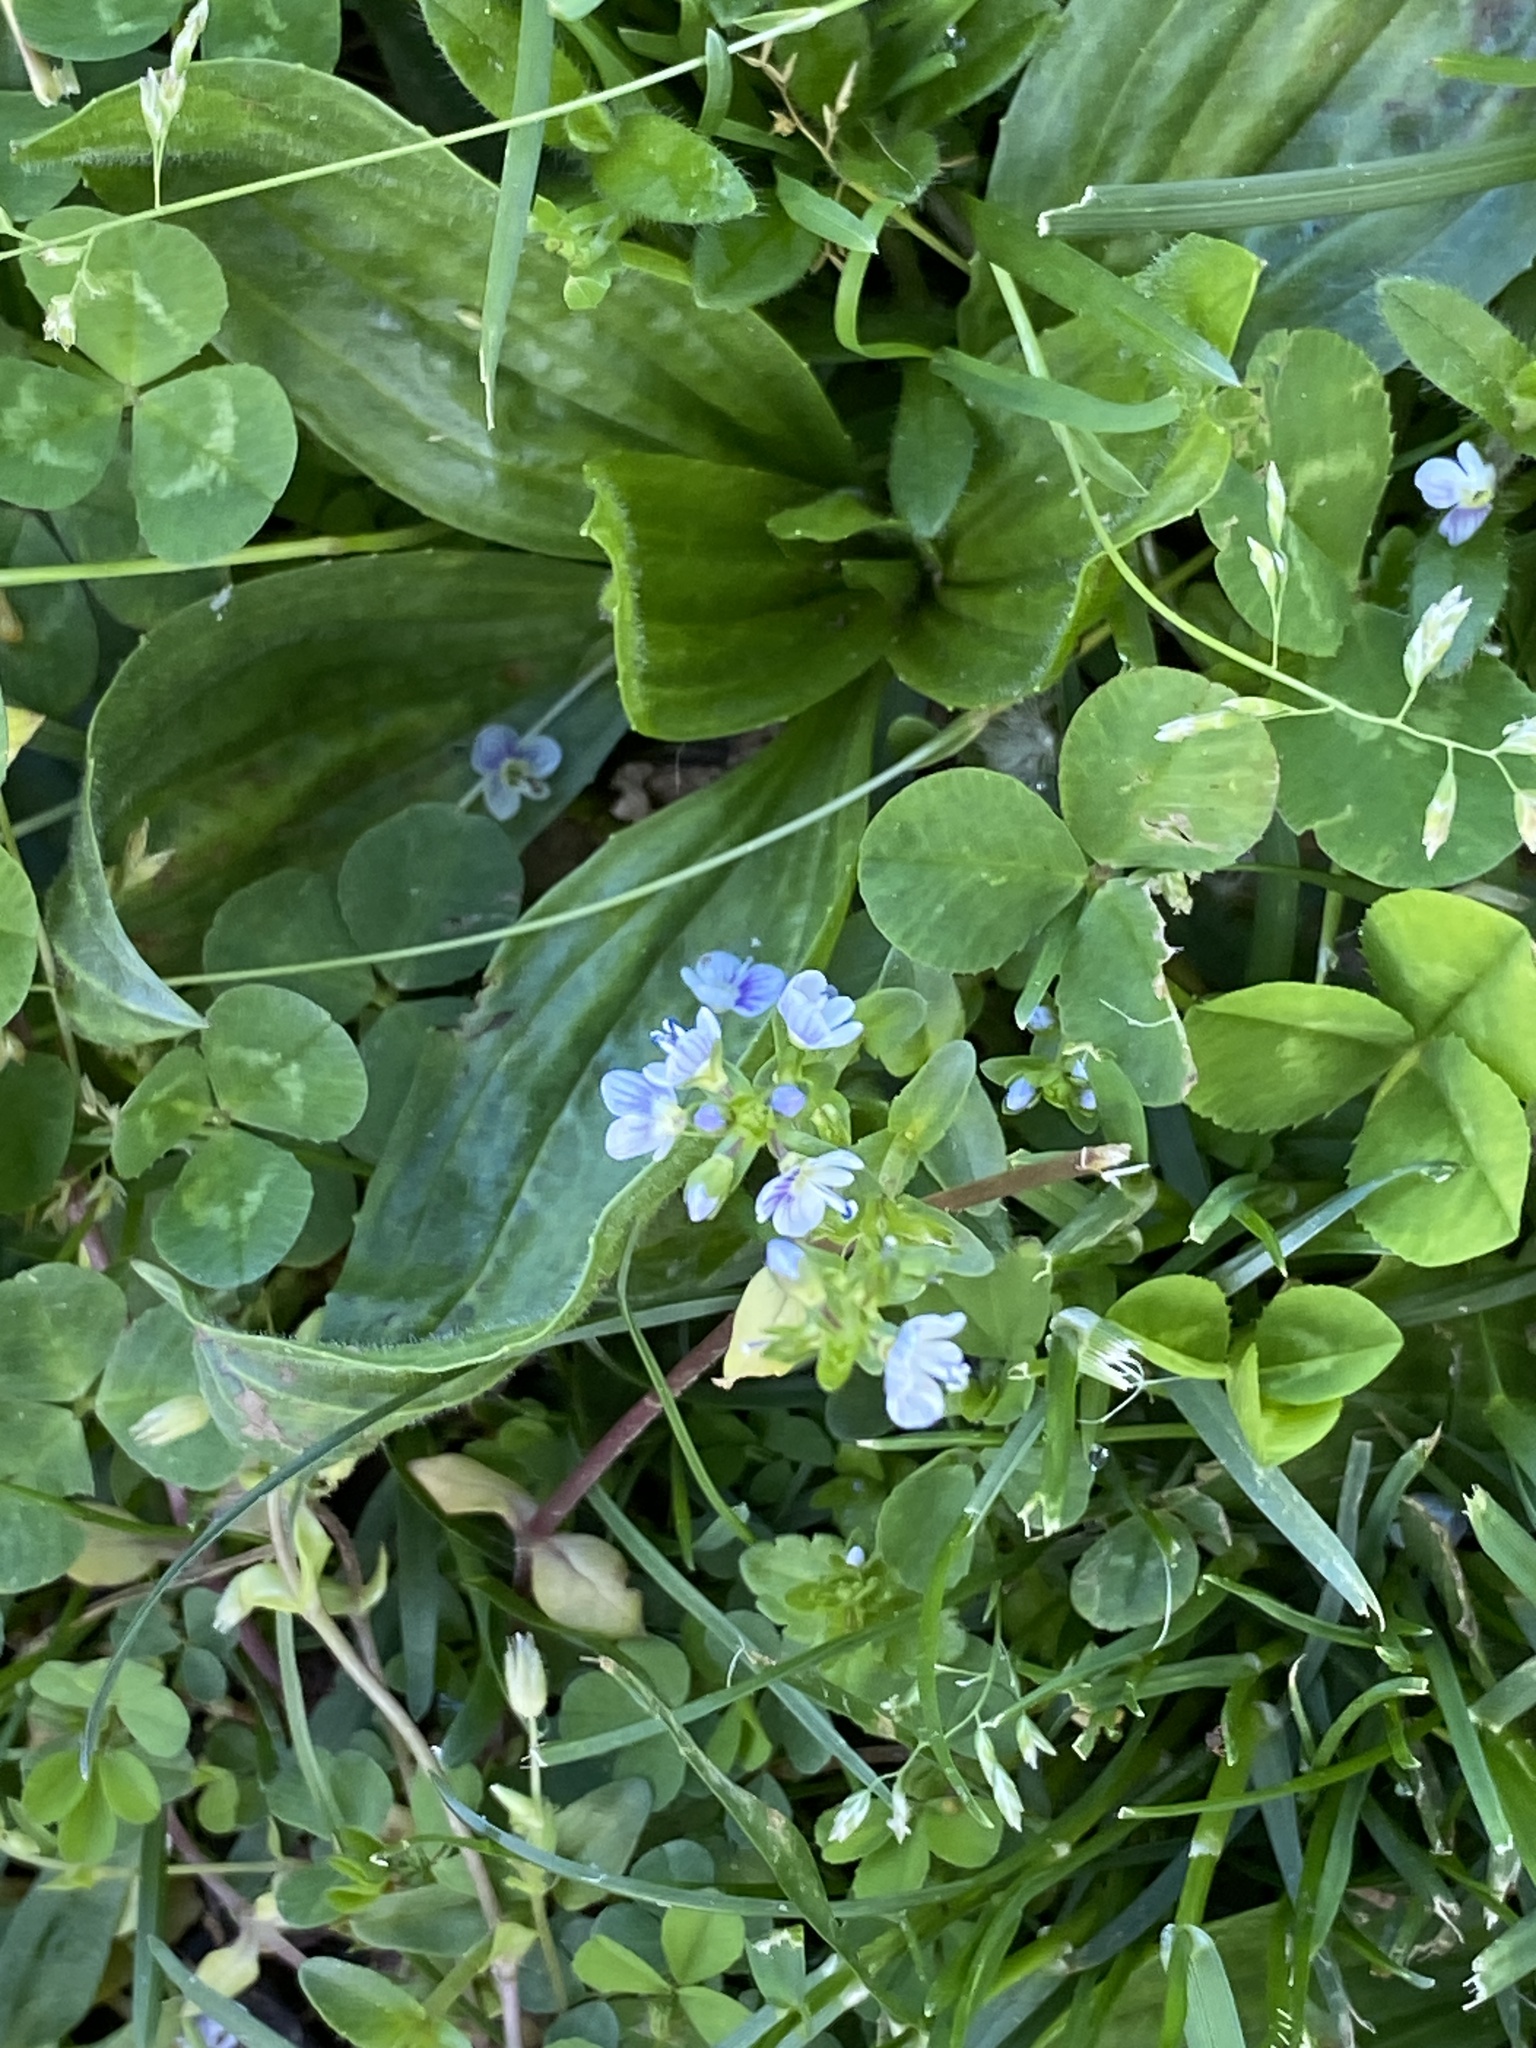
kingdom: Plantae
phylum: Tracheophyta
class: Magnoliopsida
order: Lamiales
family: Plantaginaceae
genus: Veronica
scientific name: Veronica serpyllifolia
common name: Thyme-leaved speedwell
